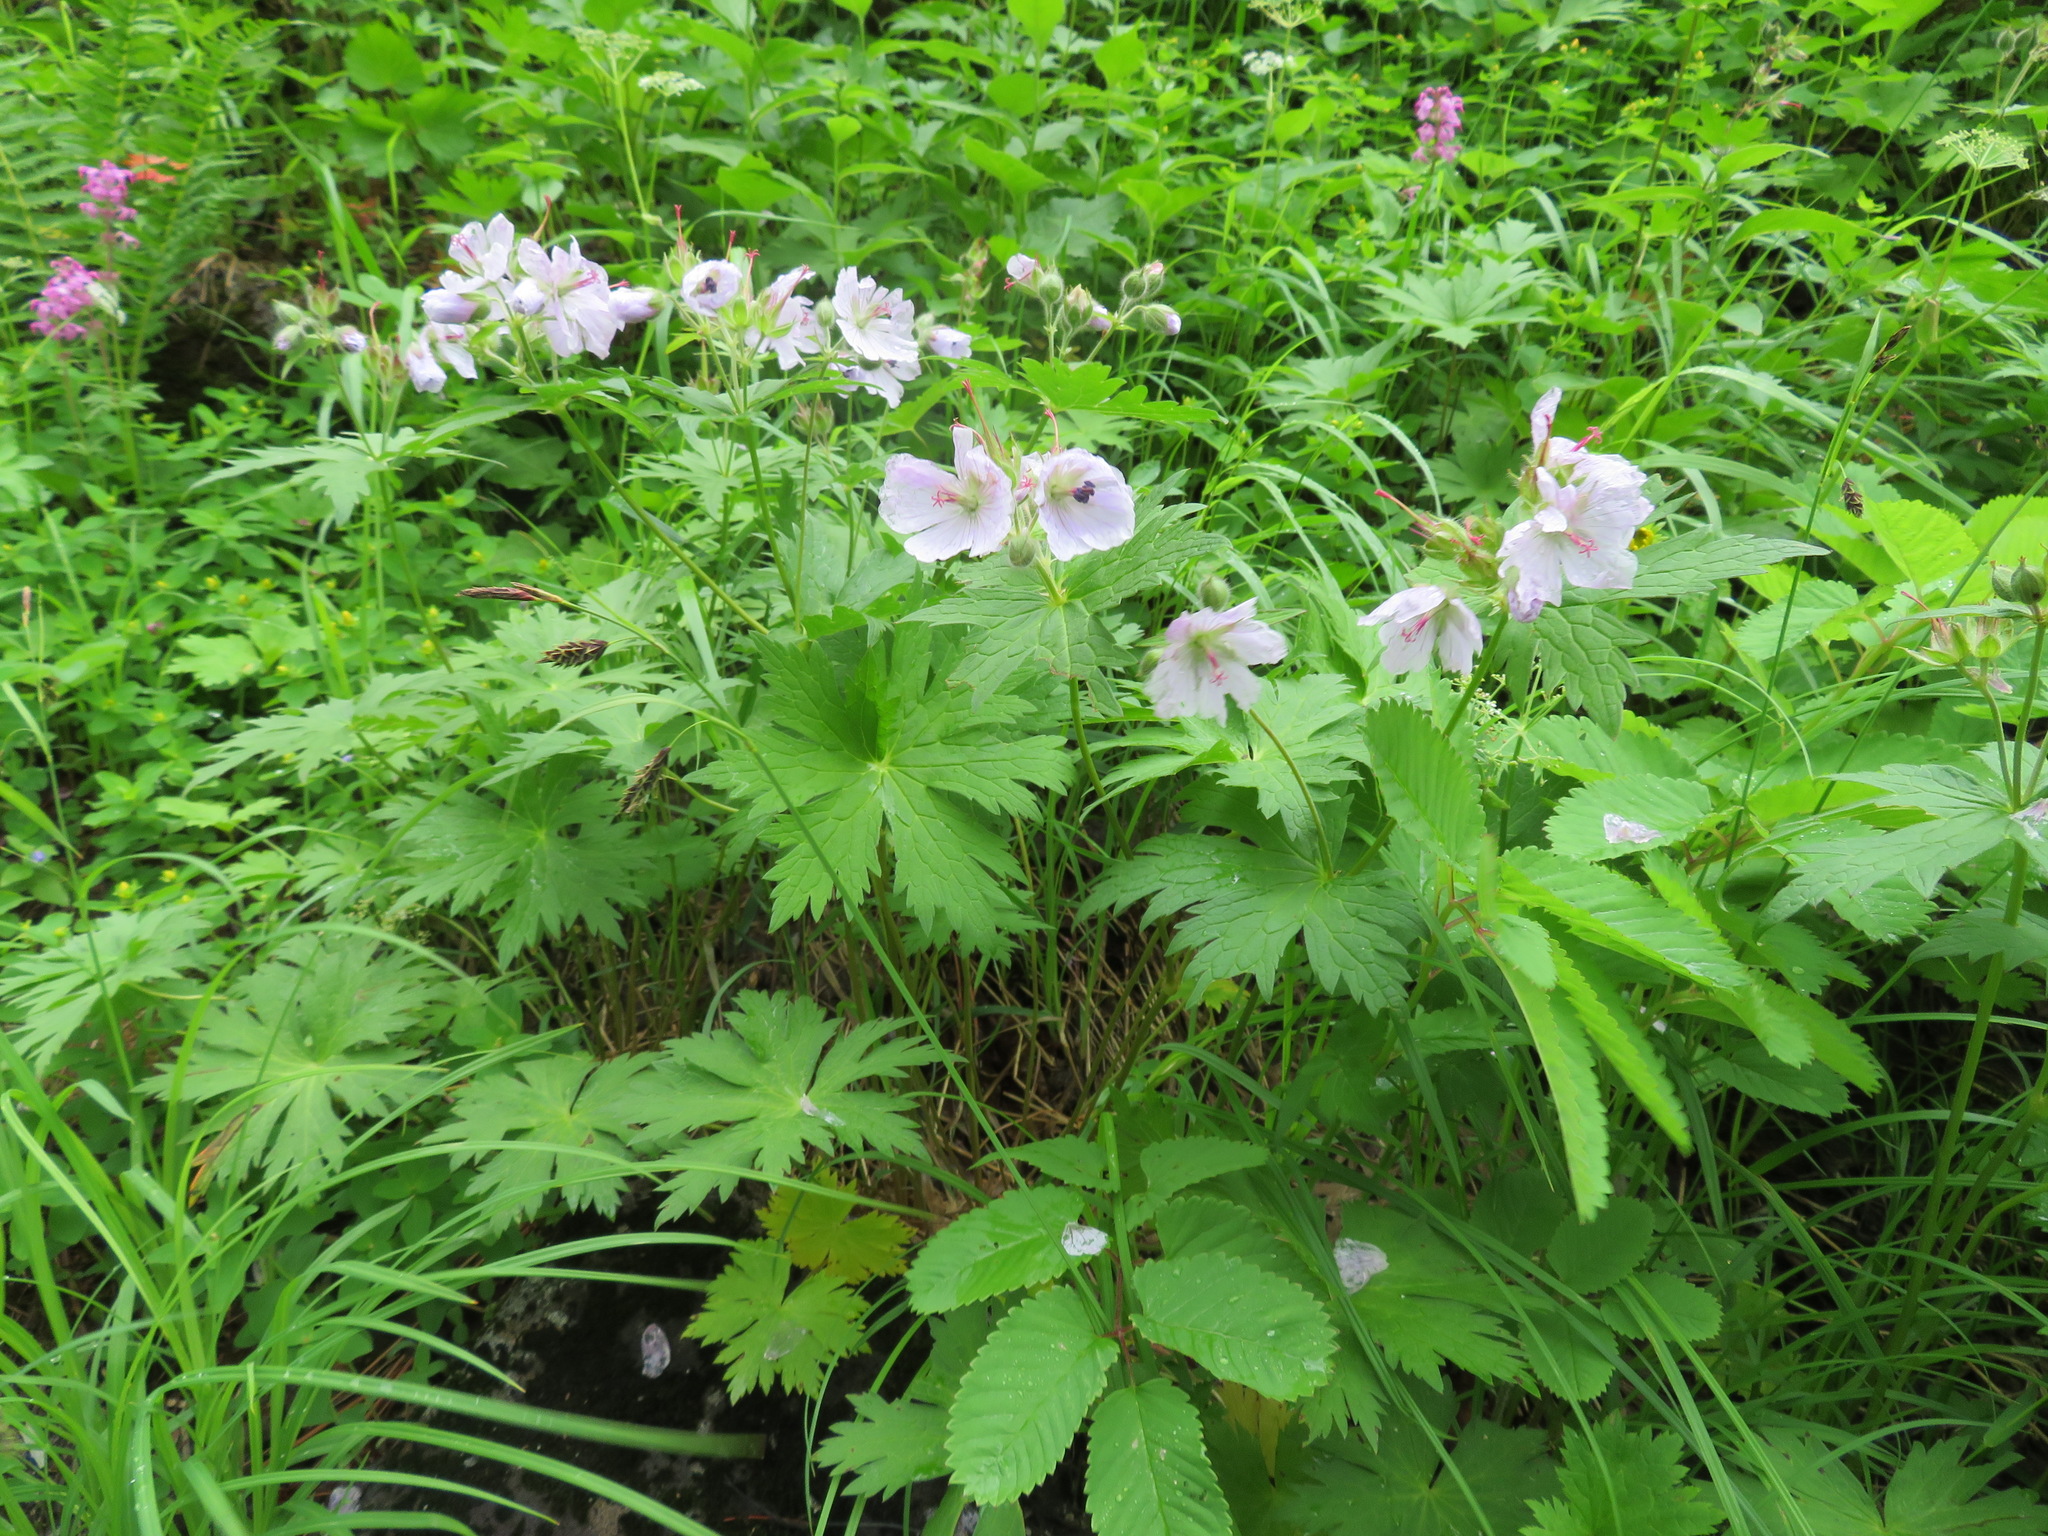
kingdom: Plantae
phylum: Tracheophyta
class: Magnoliopsida
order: Geraniales
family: Geraniaceae
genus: Geranium
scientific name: Geranium erianthum
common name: Northern crane's-bill
